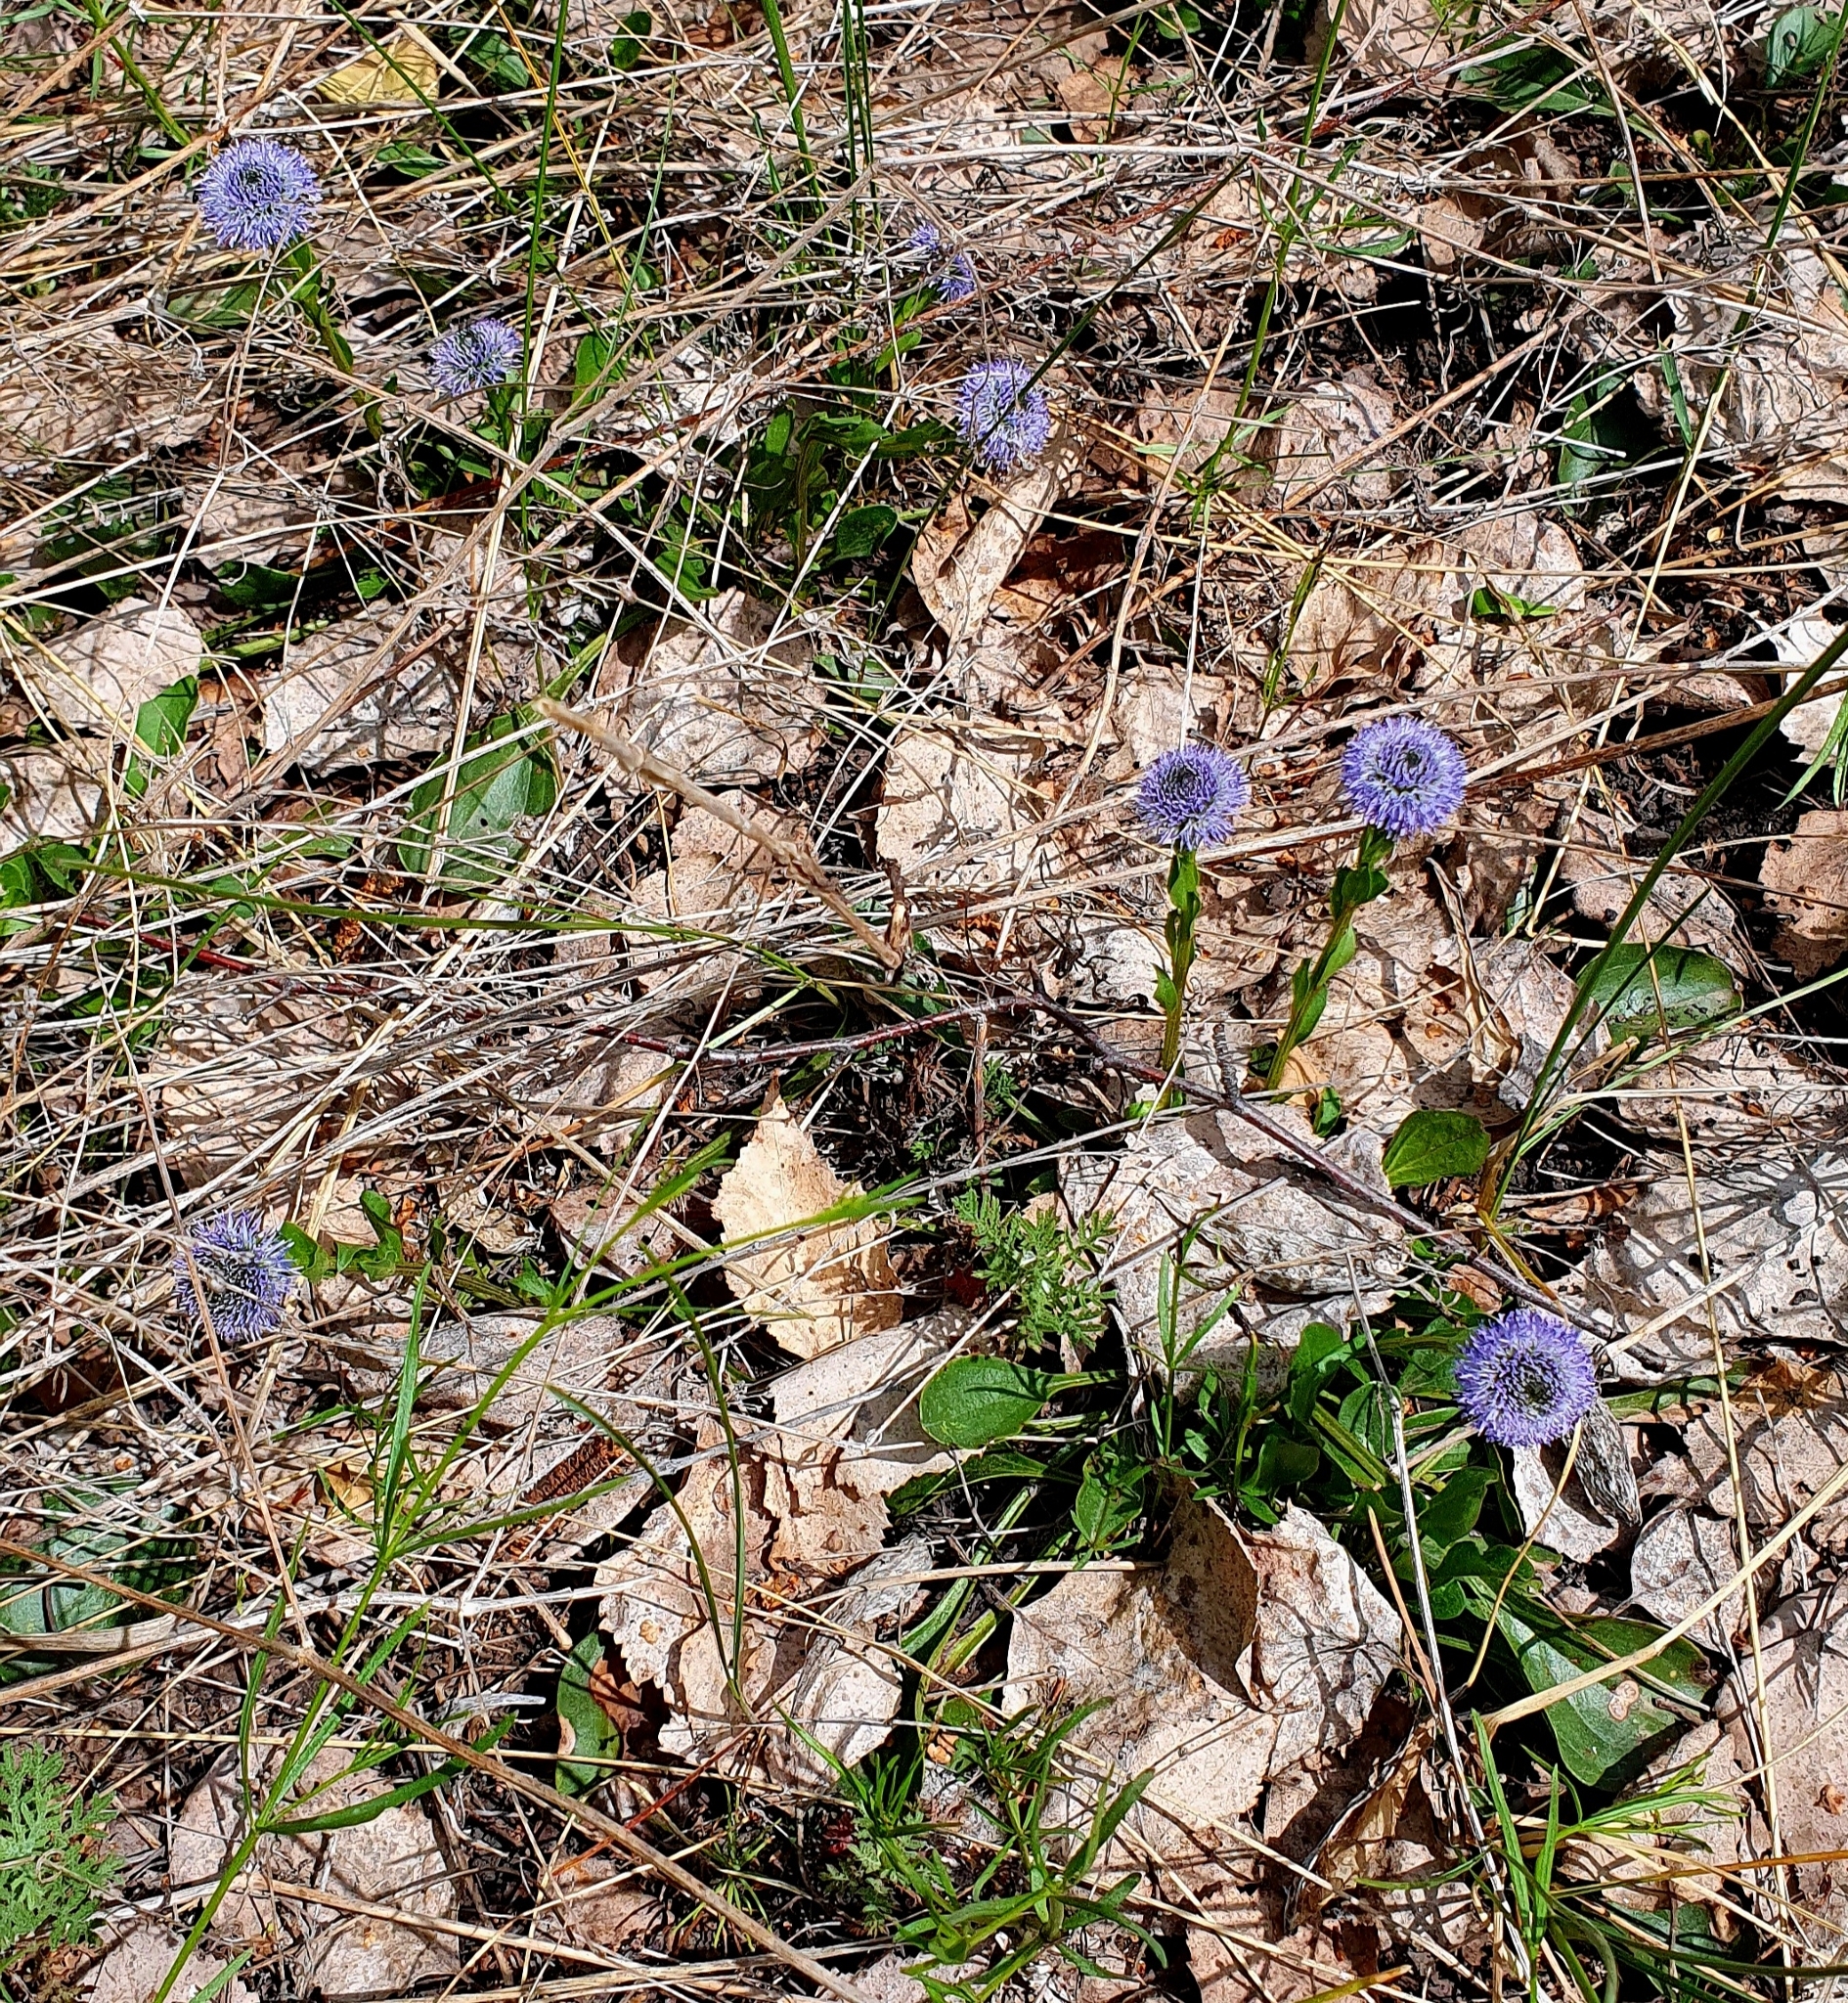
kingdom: Plantae
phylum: Tracheophyta
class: Magnoliopsida
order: Lamiales
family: Plantaginaceae
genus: Globularia
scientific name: Globularia bisnagarica
